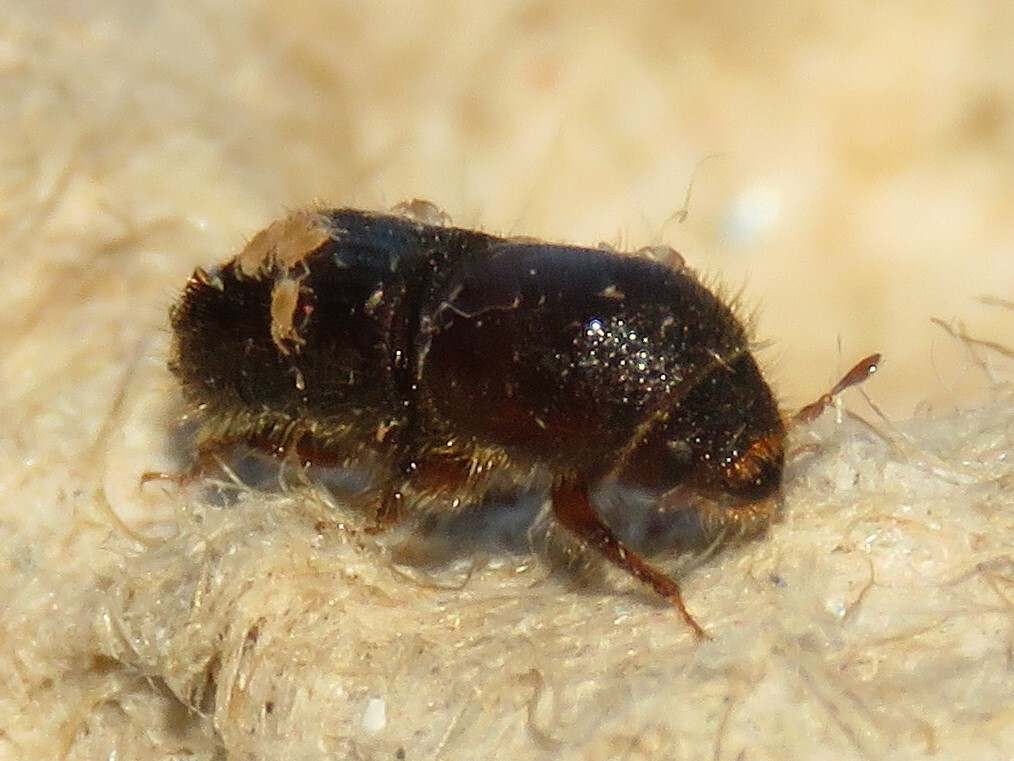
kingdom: Animalia
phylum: Arthropoda
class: Insecta
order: Coleoptera
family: Curculionidae
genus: Ips
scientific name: Ips grandicollis
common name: Eastern fivespined ips
